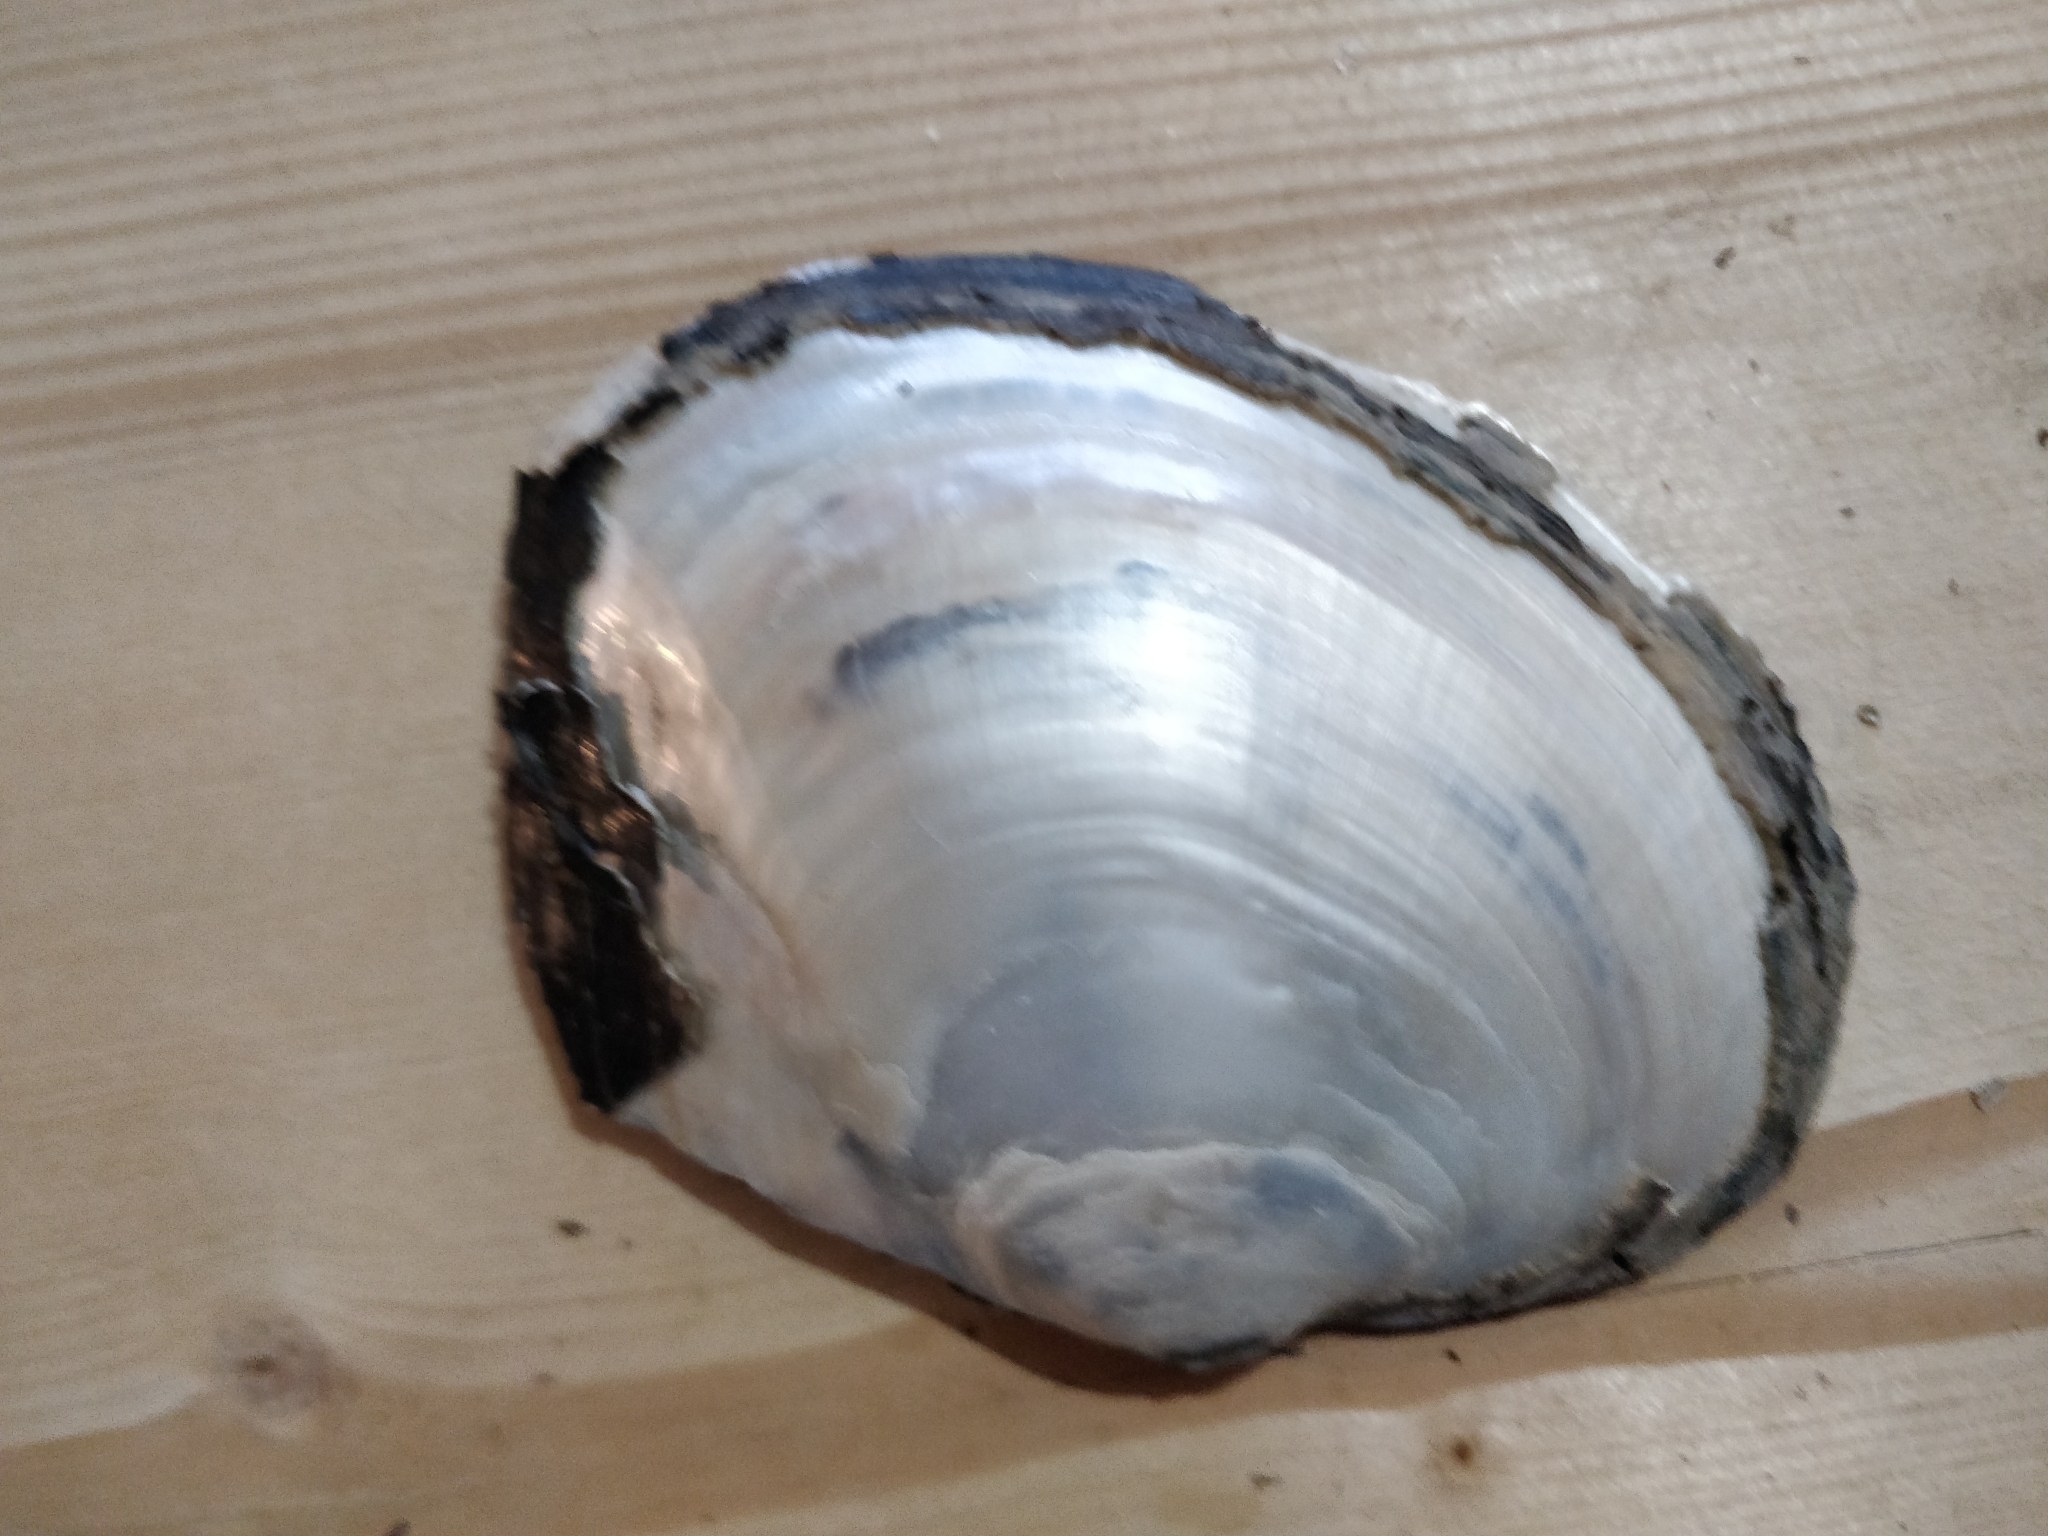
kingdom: Animalia
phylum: Mollusca
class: Bivalvia
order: Unionida
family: Unionidae
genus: Lasmigona
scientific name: Lasmigona complanata
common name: White heelsplitter
